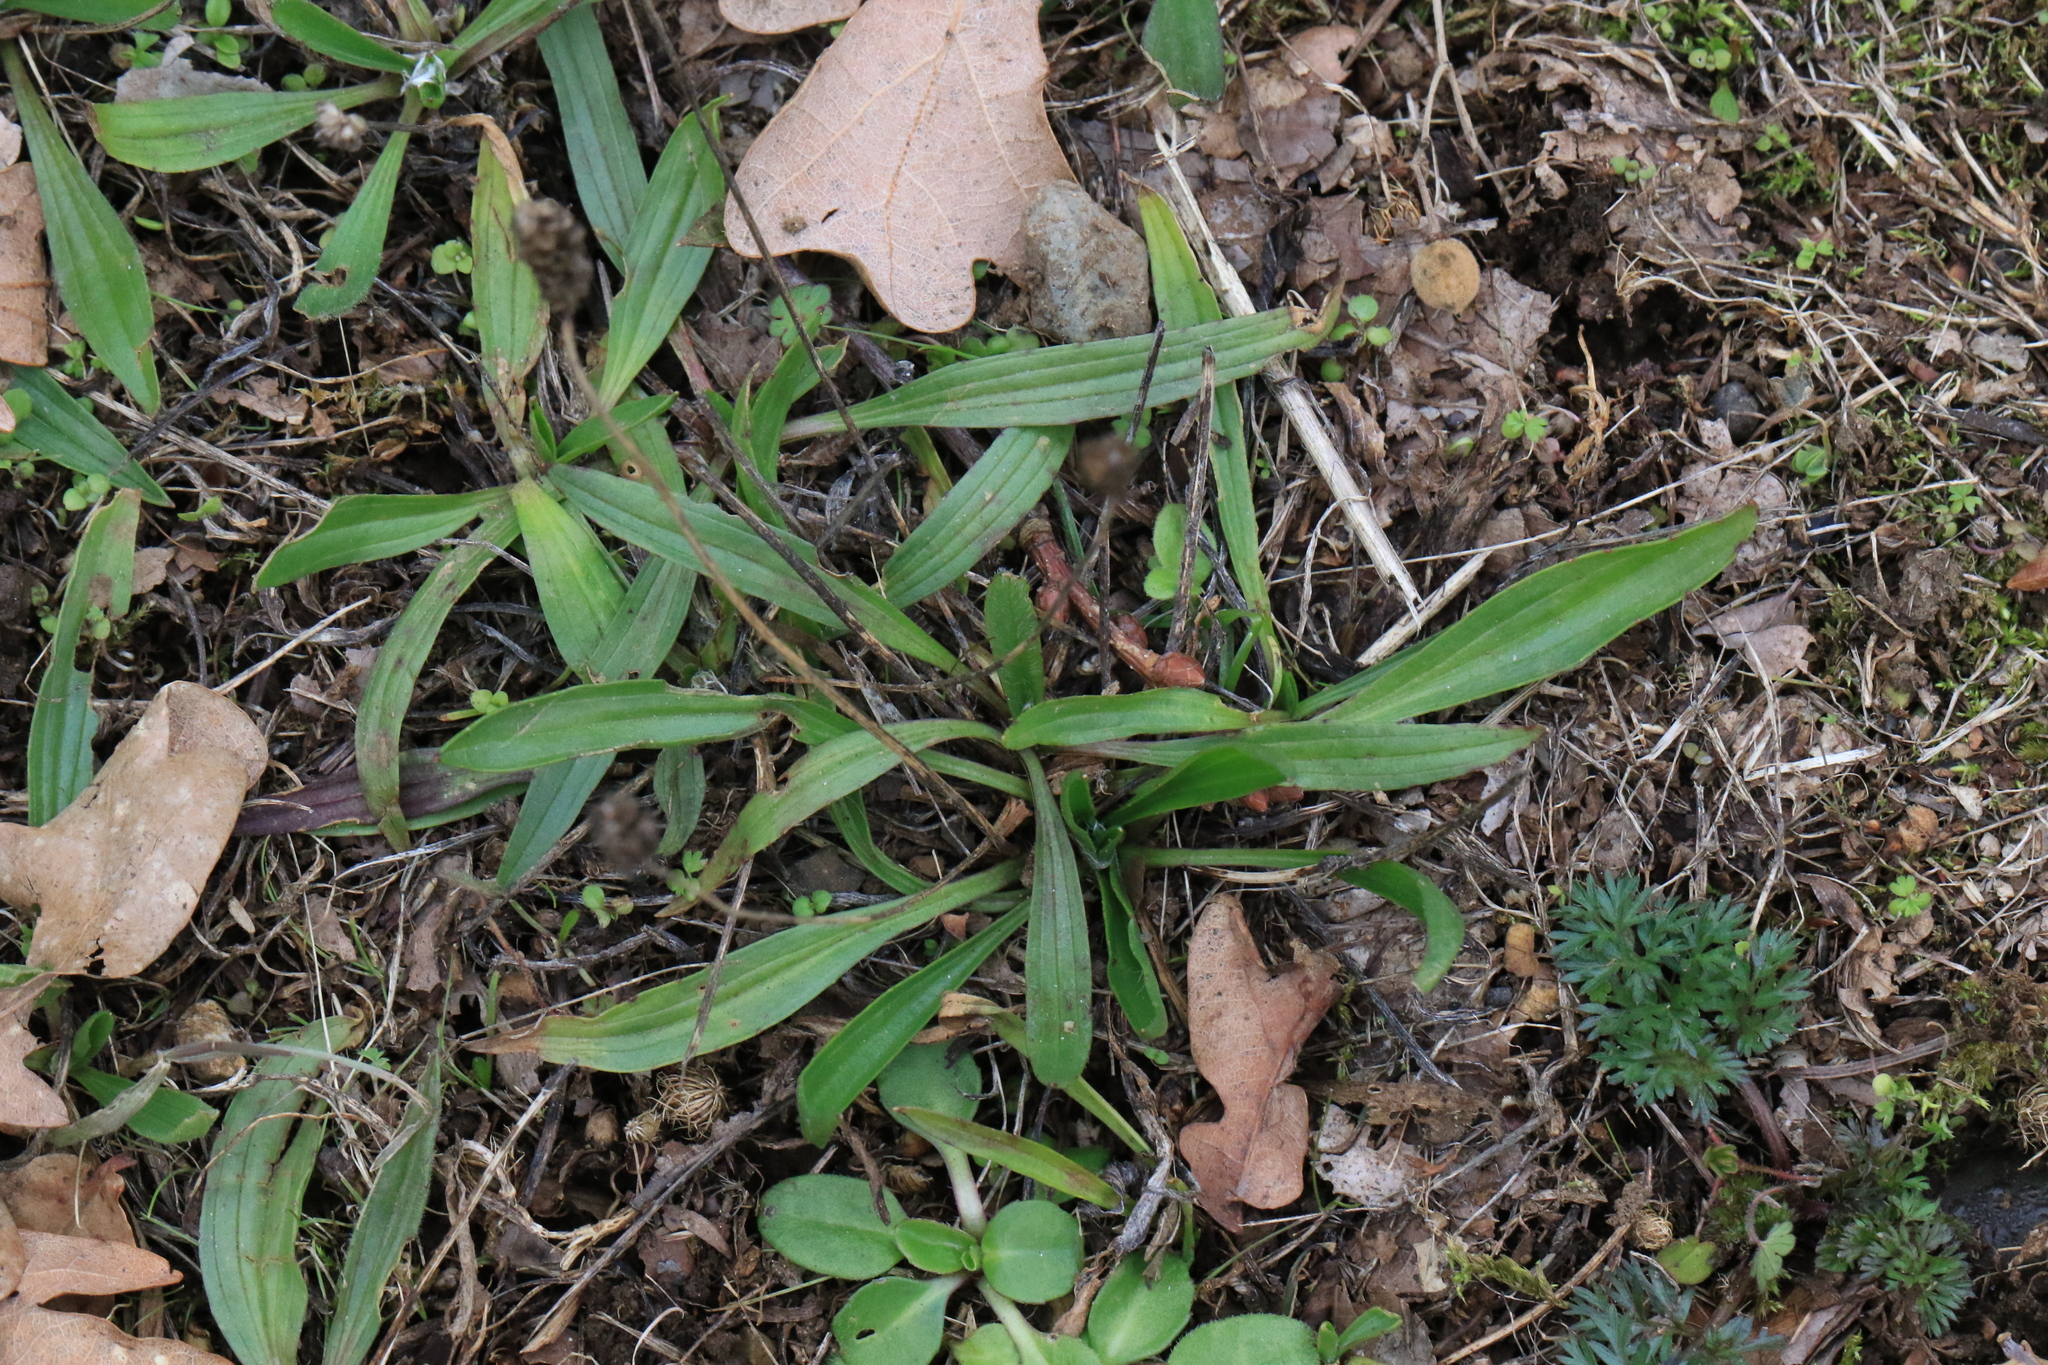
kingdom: Plantae
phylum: Tracheophyta
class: Magnoliopsida
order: Lamiales
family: Plantaginaceae
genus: Plantago
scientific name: Plantago lanceolata
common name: Ribwort plantain
